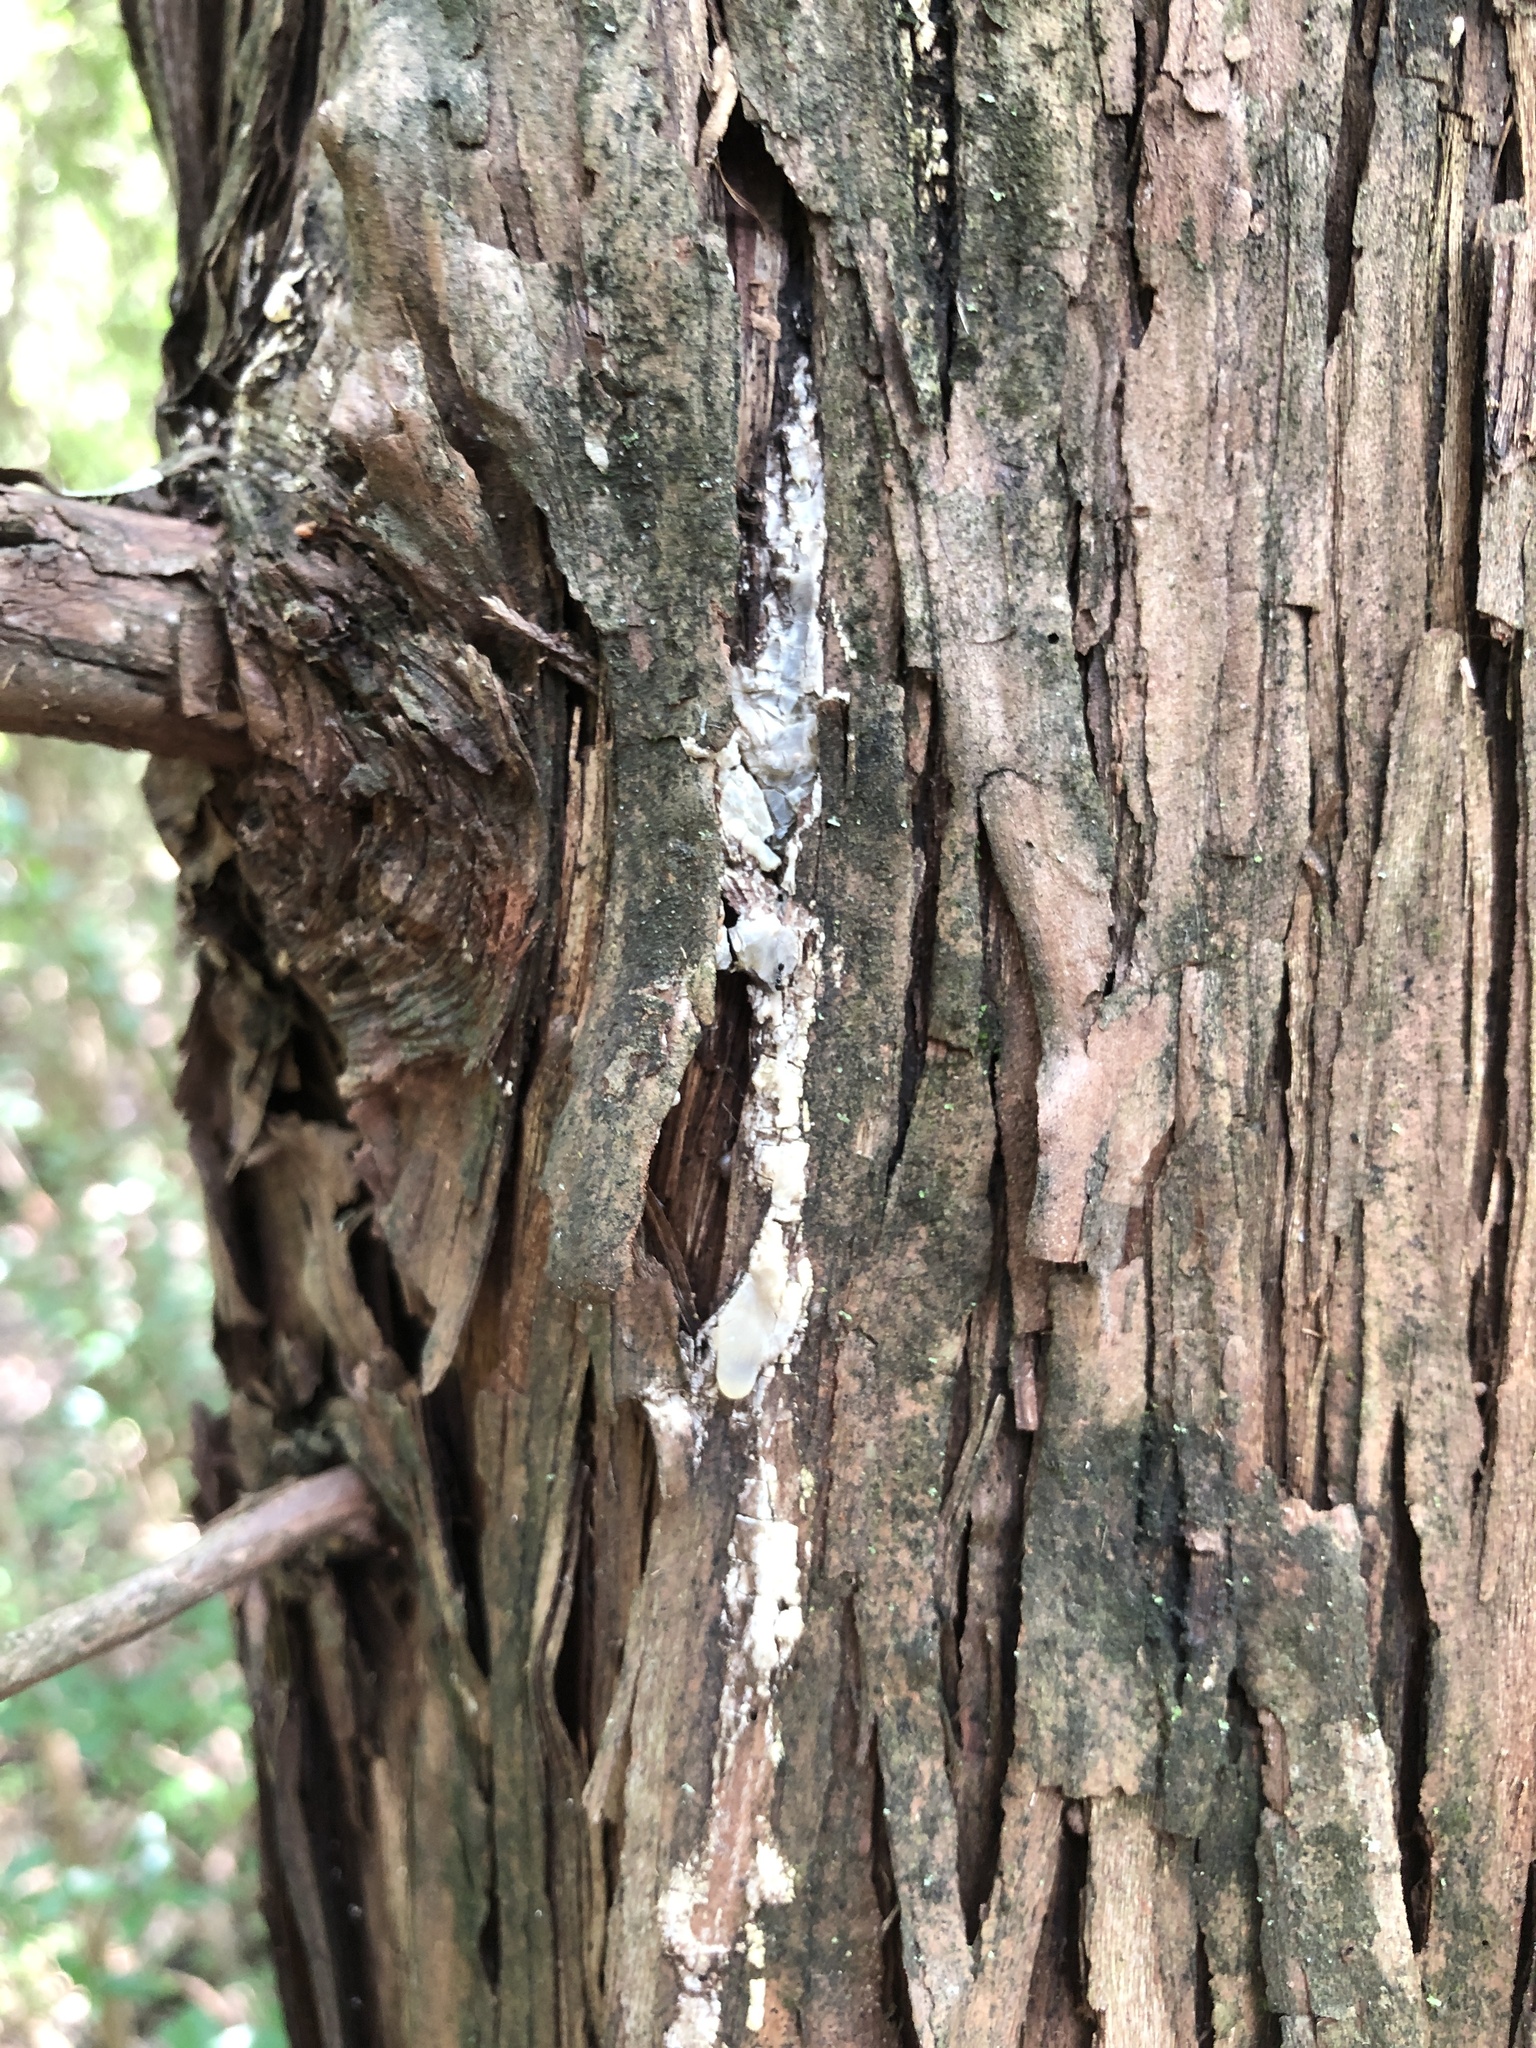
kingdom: Fungi
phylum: Basidiomycota
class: Agaricomycetes
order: Agaricales
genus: Dendrothele
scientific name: Dendrothele nivosa
